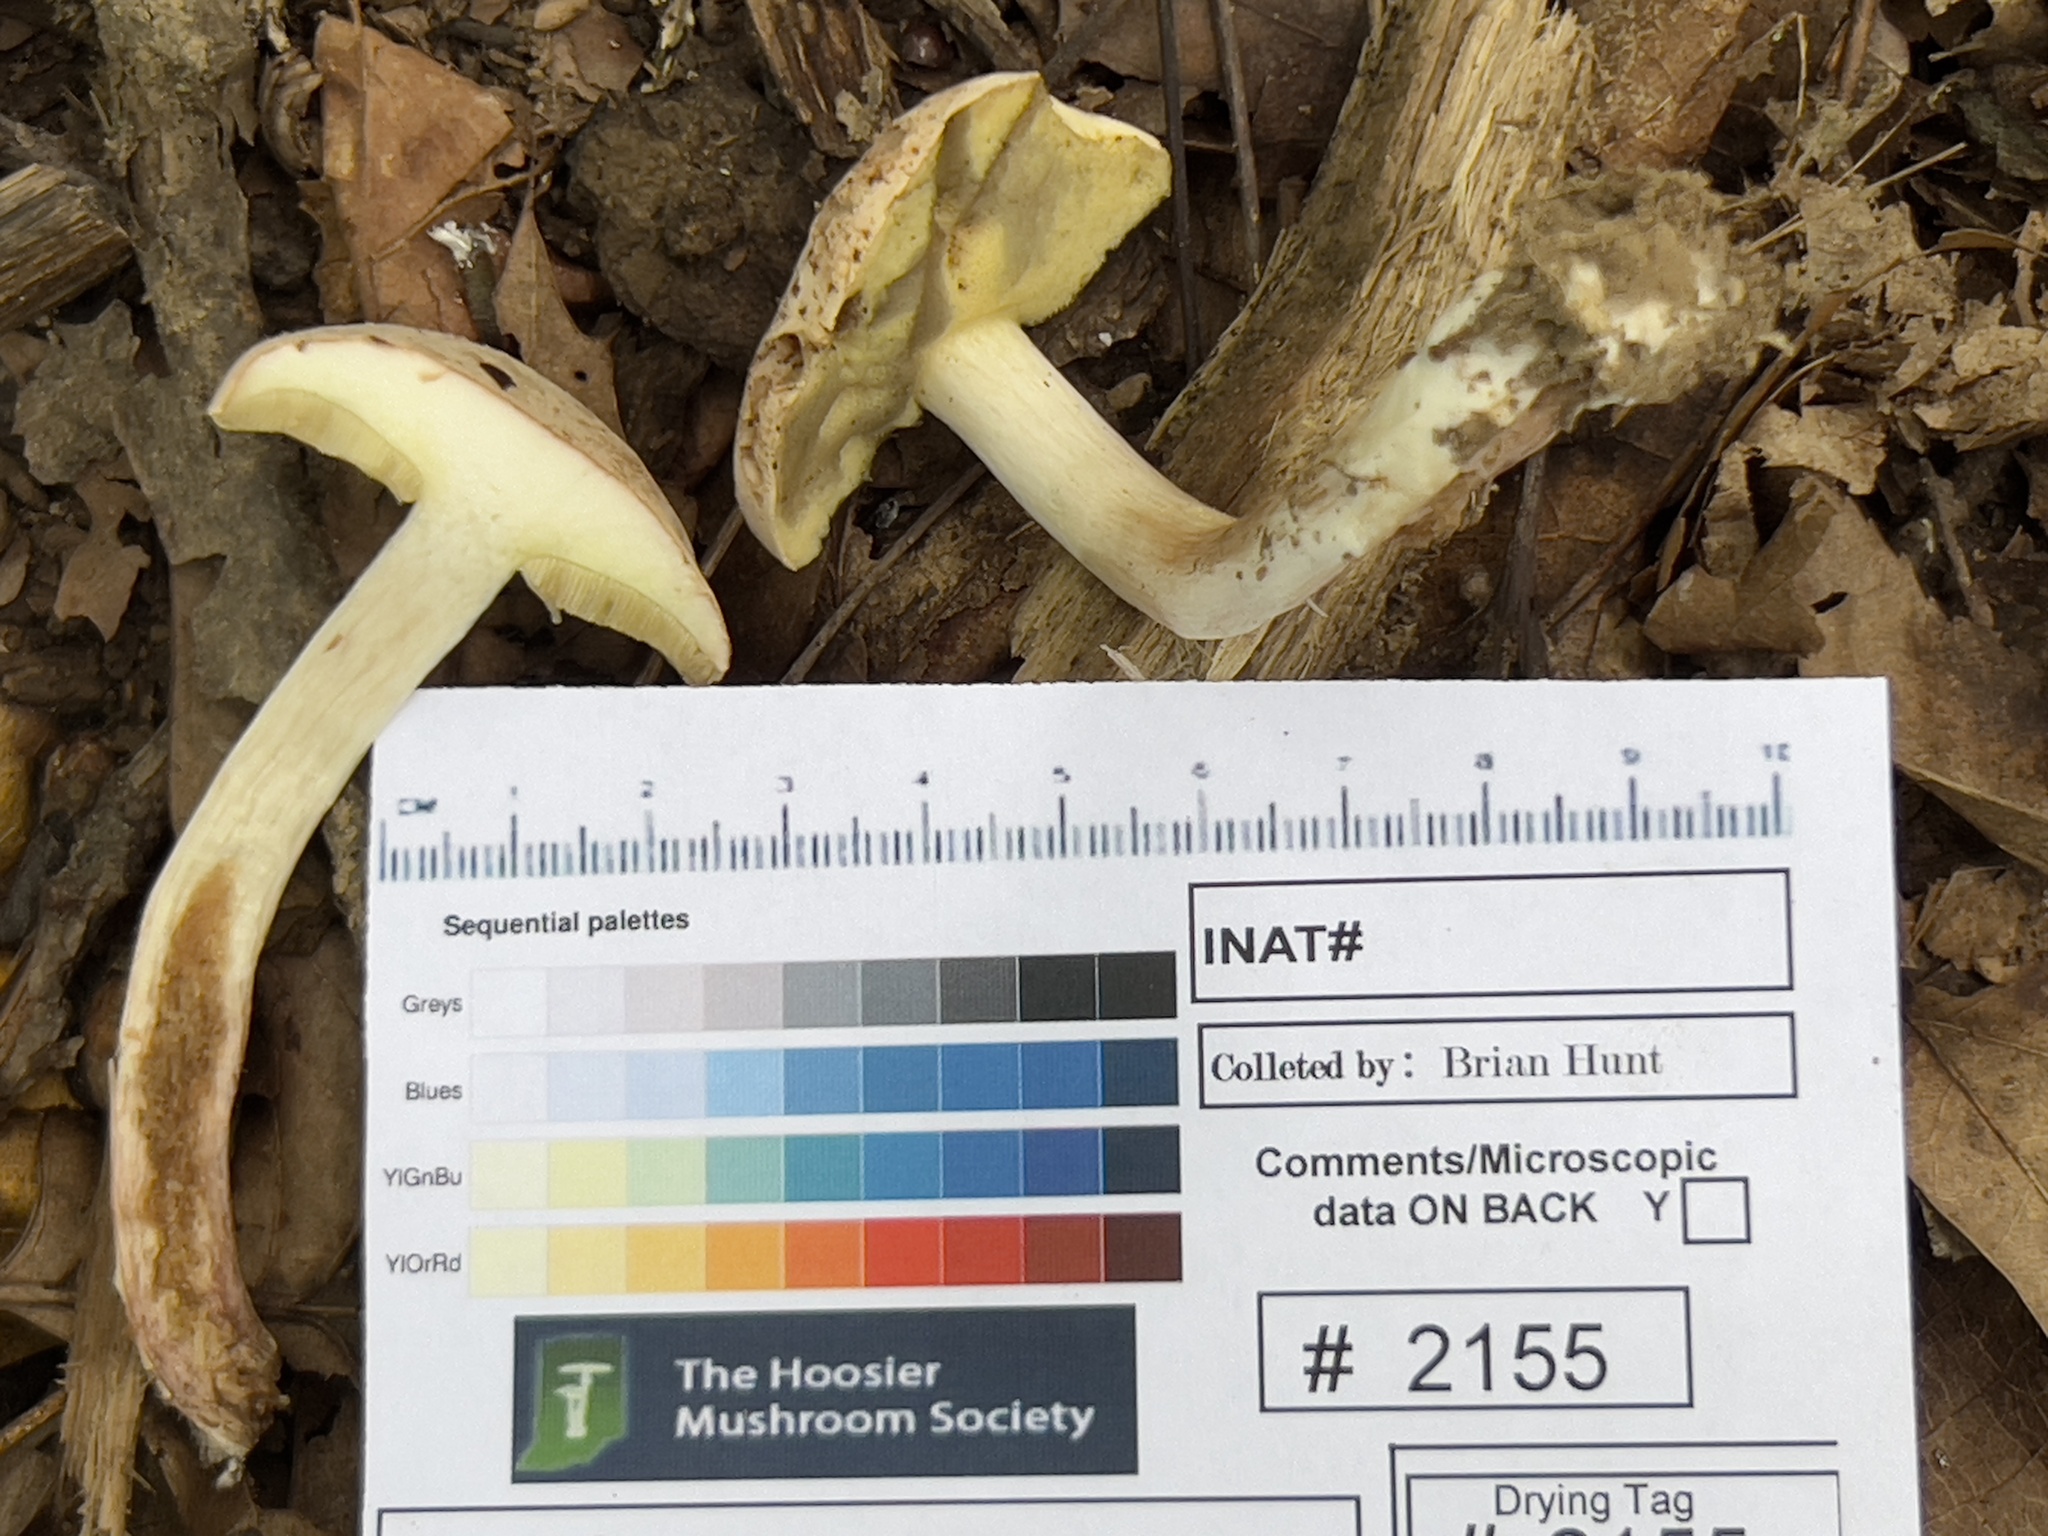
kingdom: Fungi
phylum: Basidiomycota
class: Agaricomycetes
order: Boletales
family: Boletaceae
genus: Imleria
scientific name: Imleria pallida
